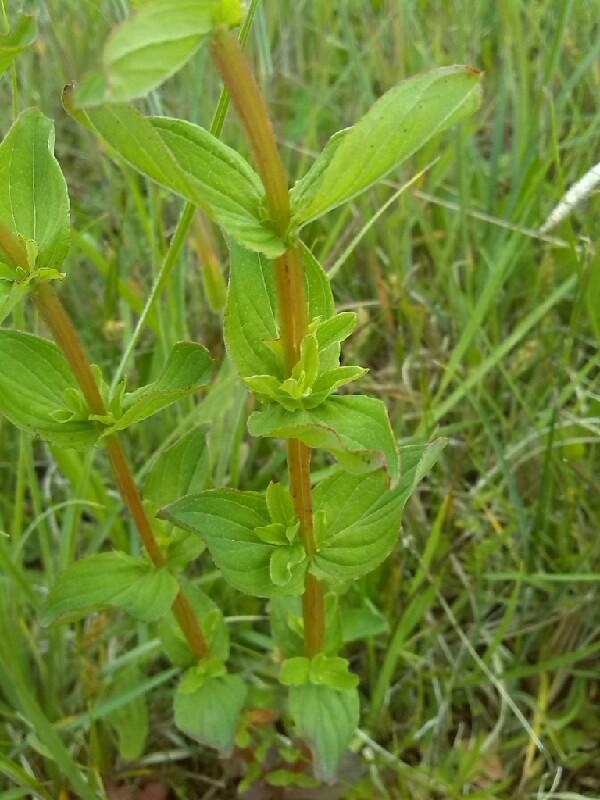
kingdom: Plantae
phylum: Tracheophyta
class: Magnoliopsida
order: Malpighiales
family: Hypericaceae
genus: Hypericum
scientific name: Hypericum tetrapterum
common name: Square-stalked st. john's-wort
